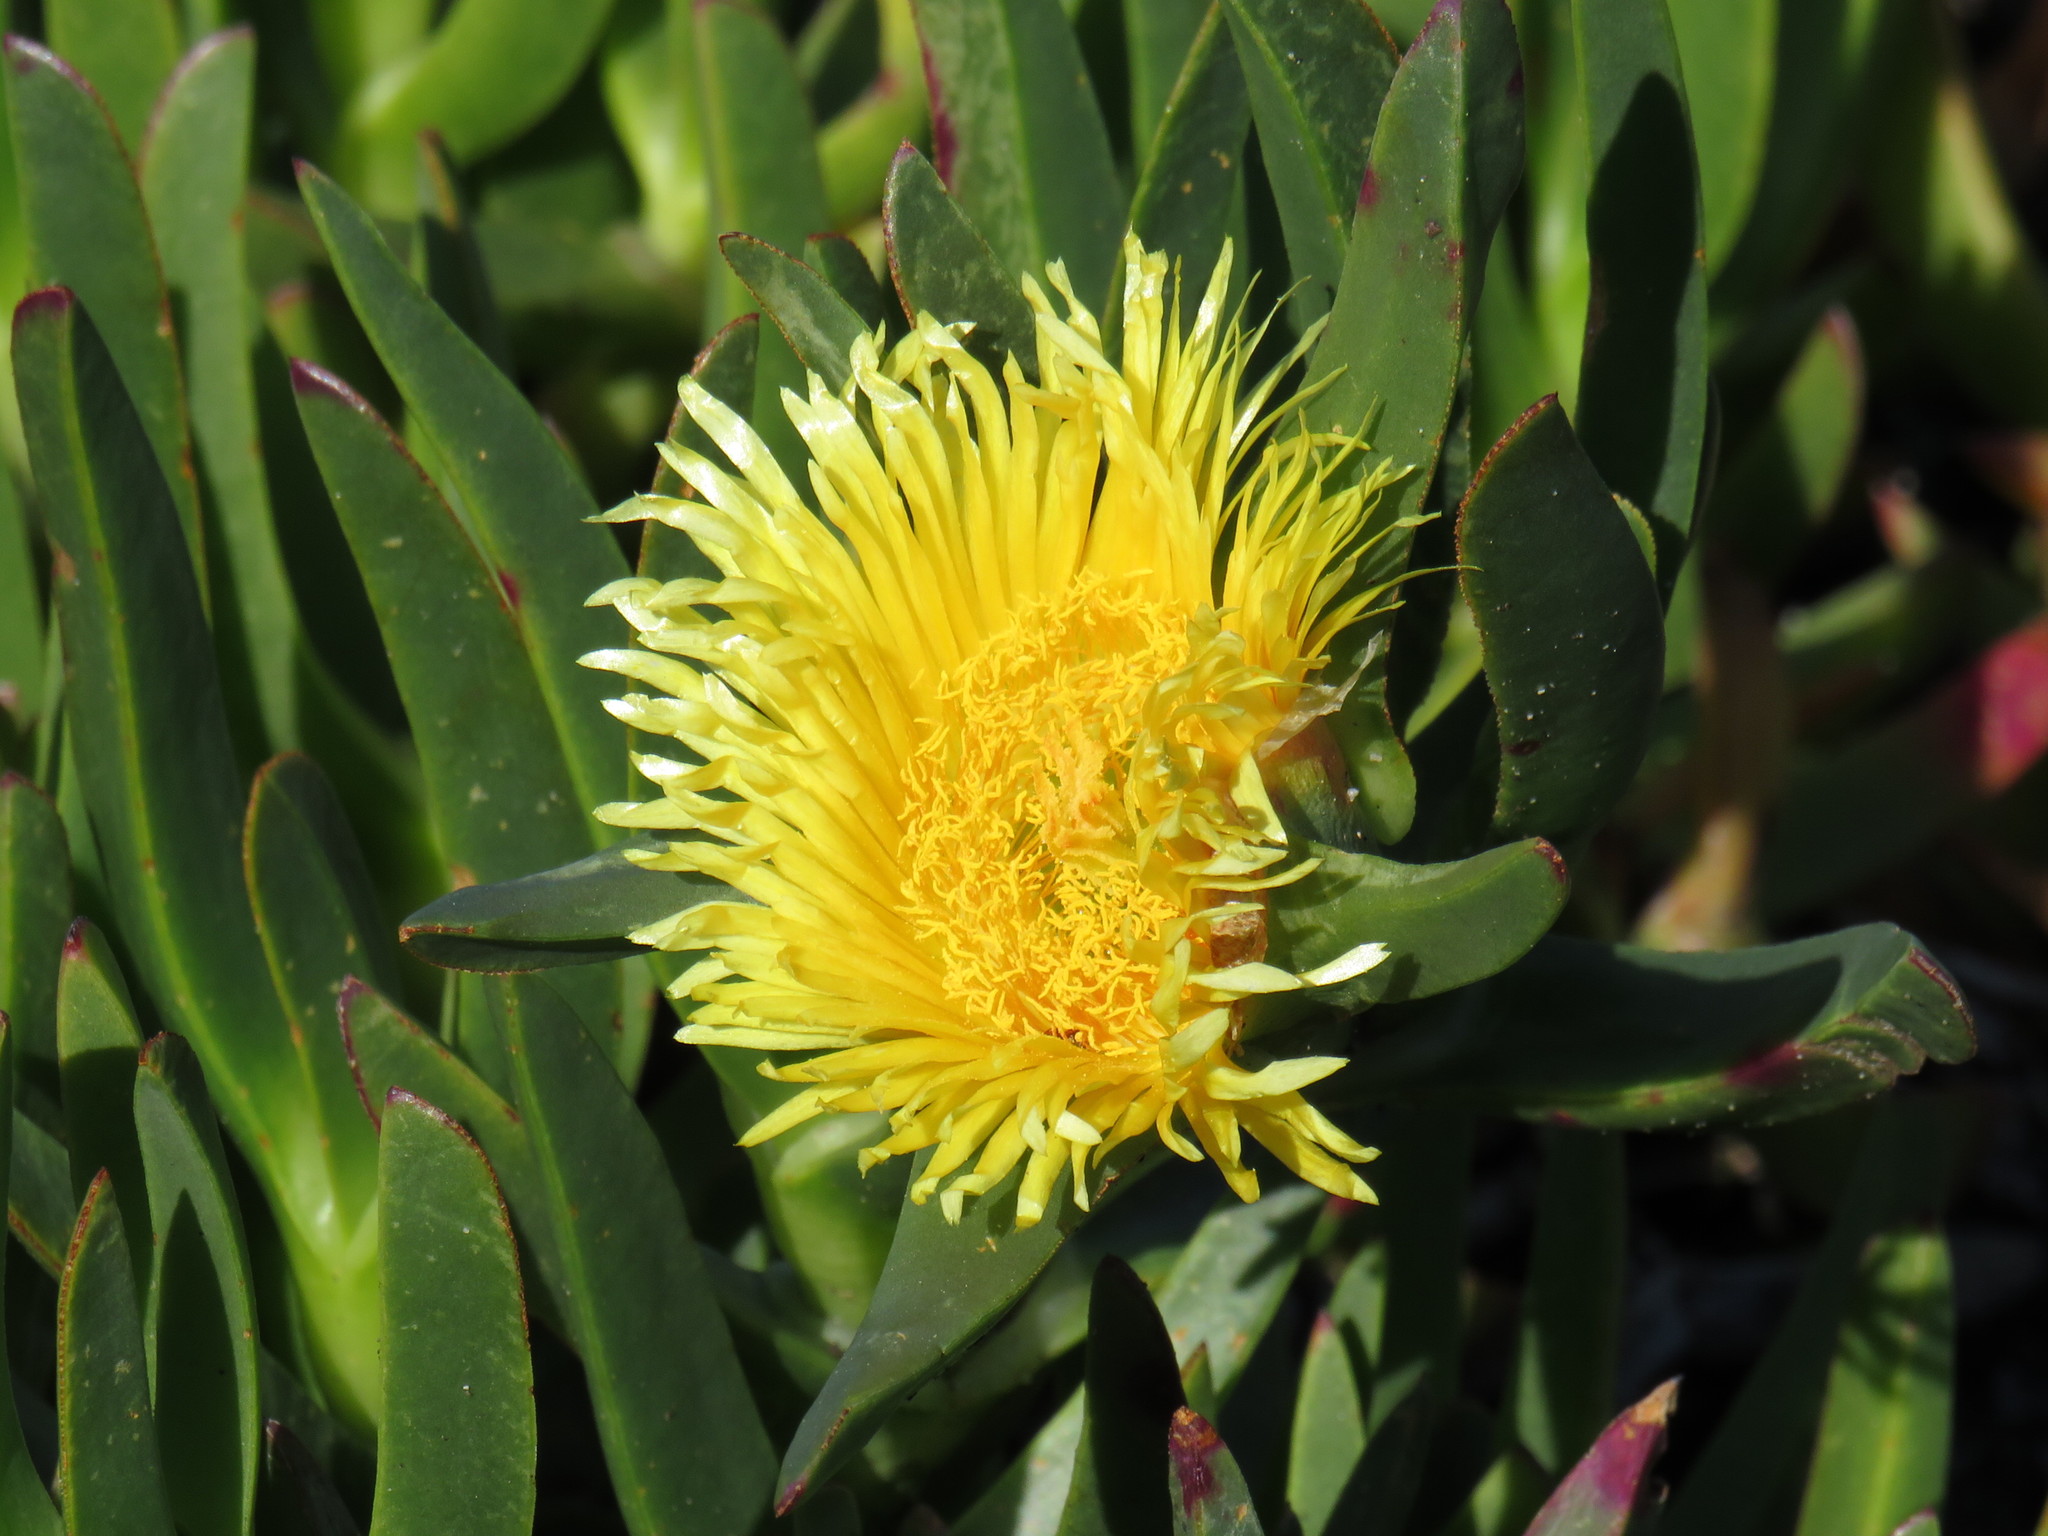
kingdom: Plantae
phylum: Tracheophyta
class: Magnoliopsida
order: Caryophyllales
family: Aizoaceae
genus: Carpobrotus
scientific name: Carpobrotus edulis
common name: Hottentot-fig
